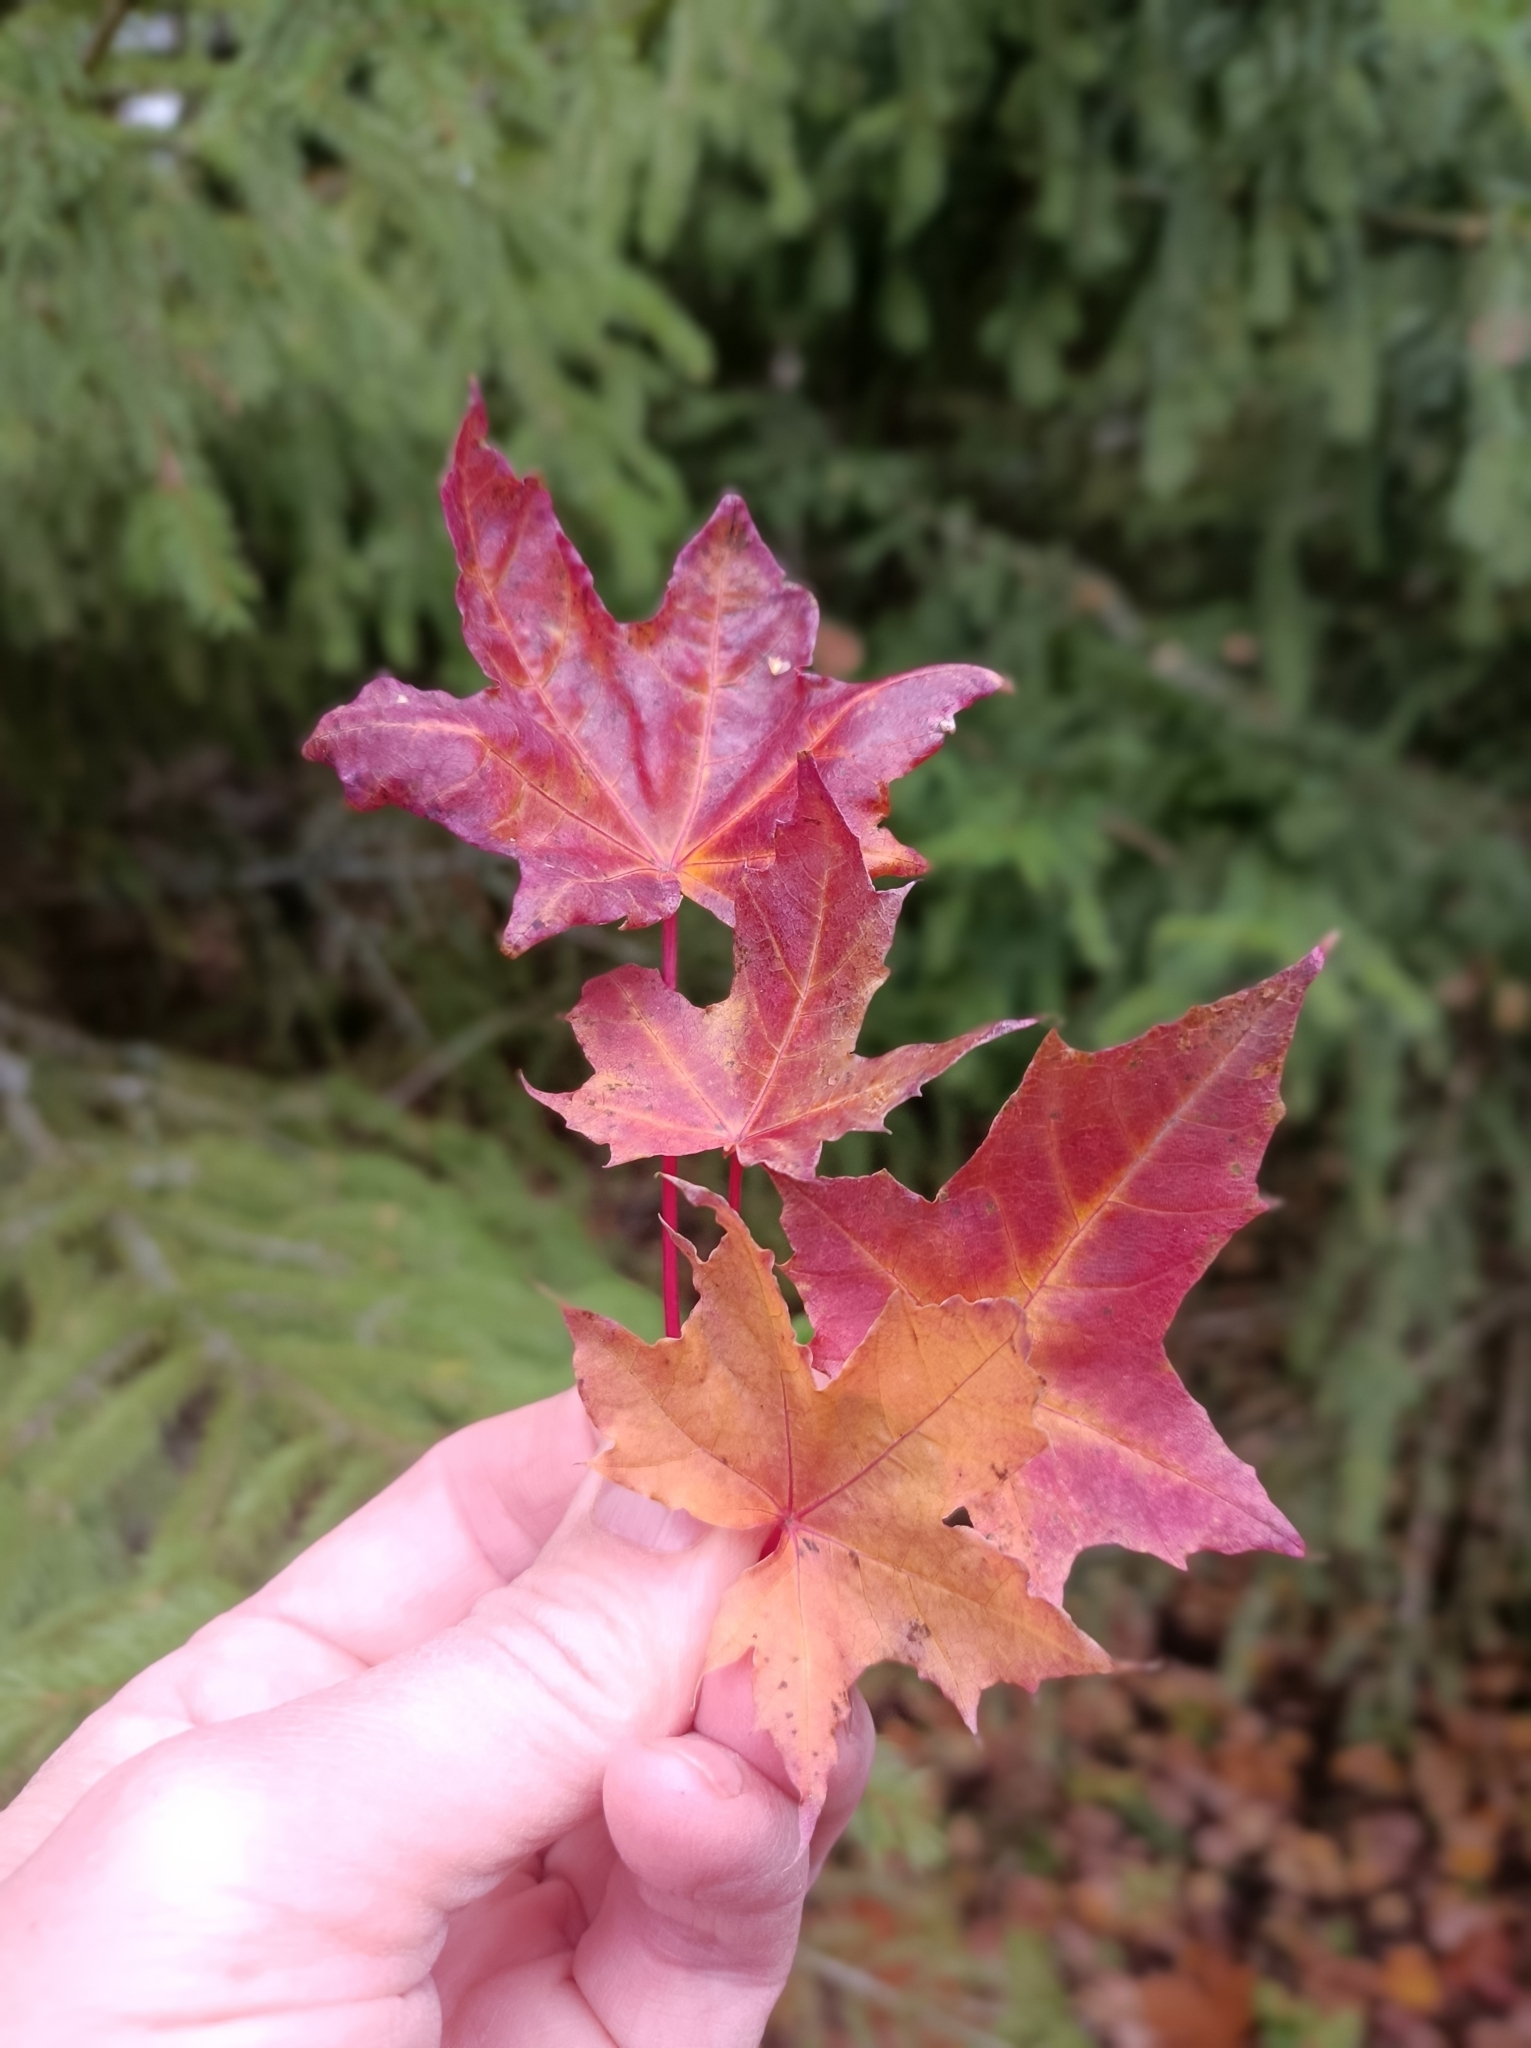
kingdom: Plantae
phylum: Tracheophyta
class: Magnoliopsida
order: Sapindales
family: Sapindaceae
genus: Acer
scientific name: Acer platanoides
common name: Norway maple
